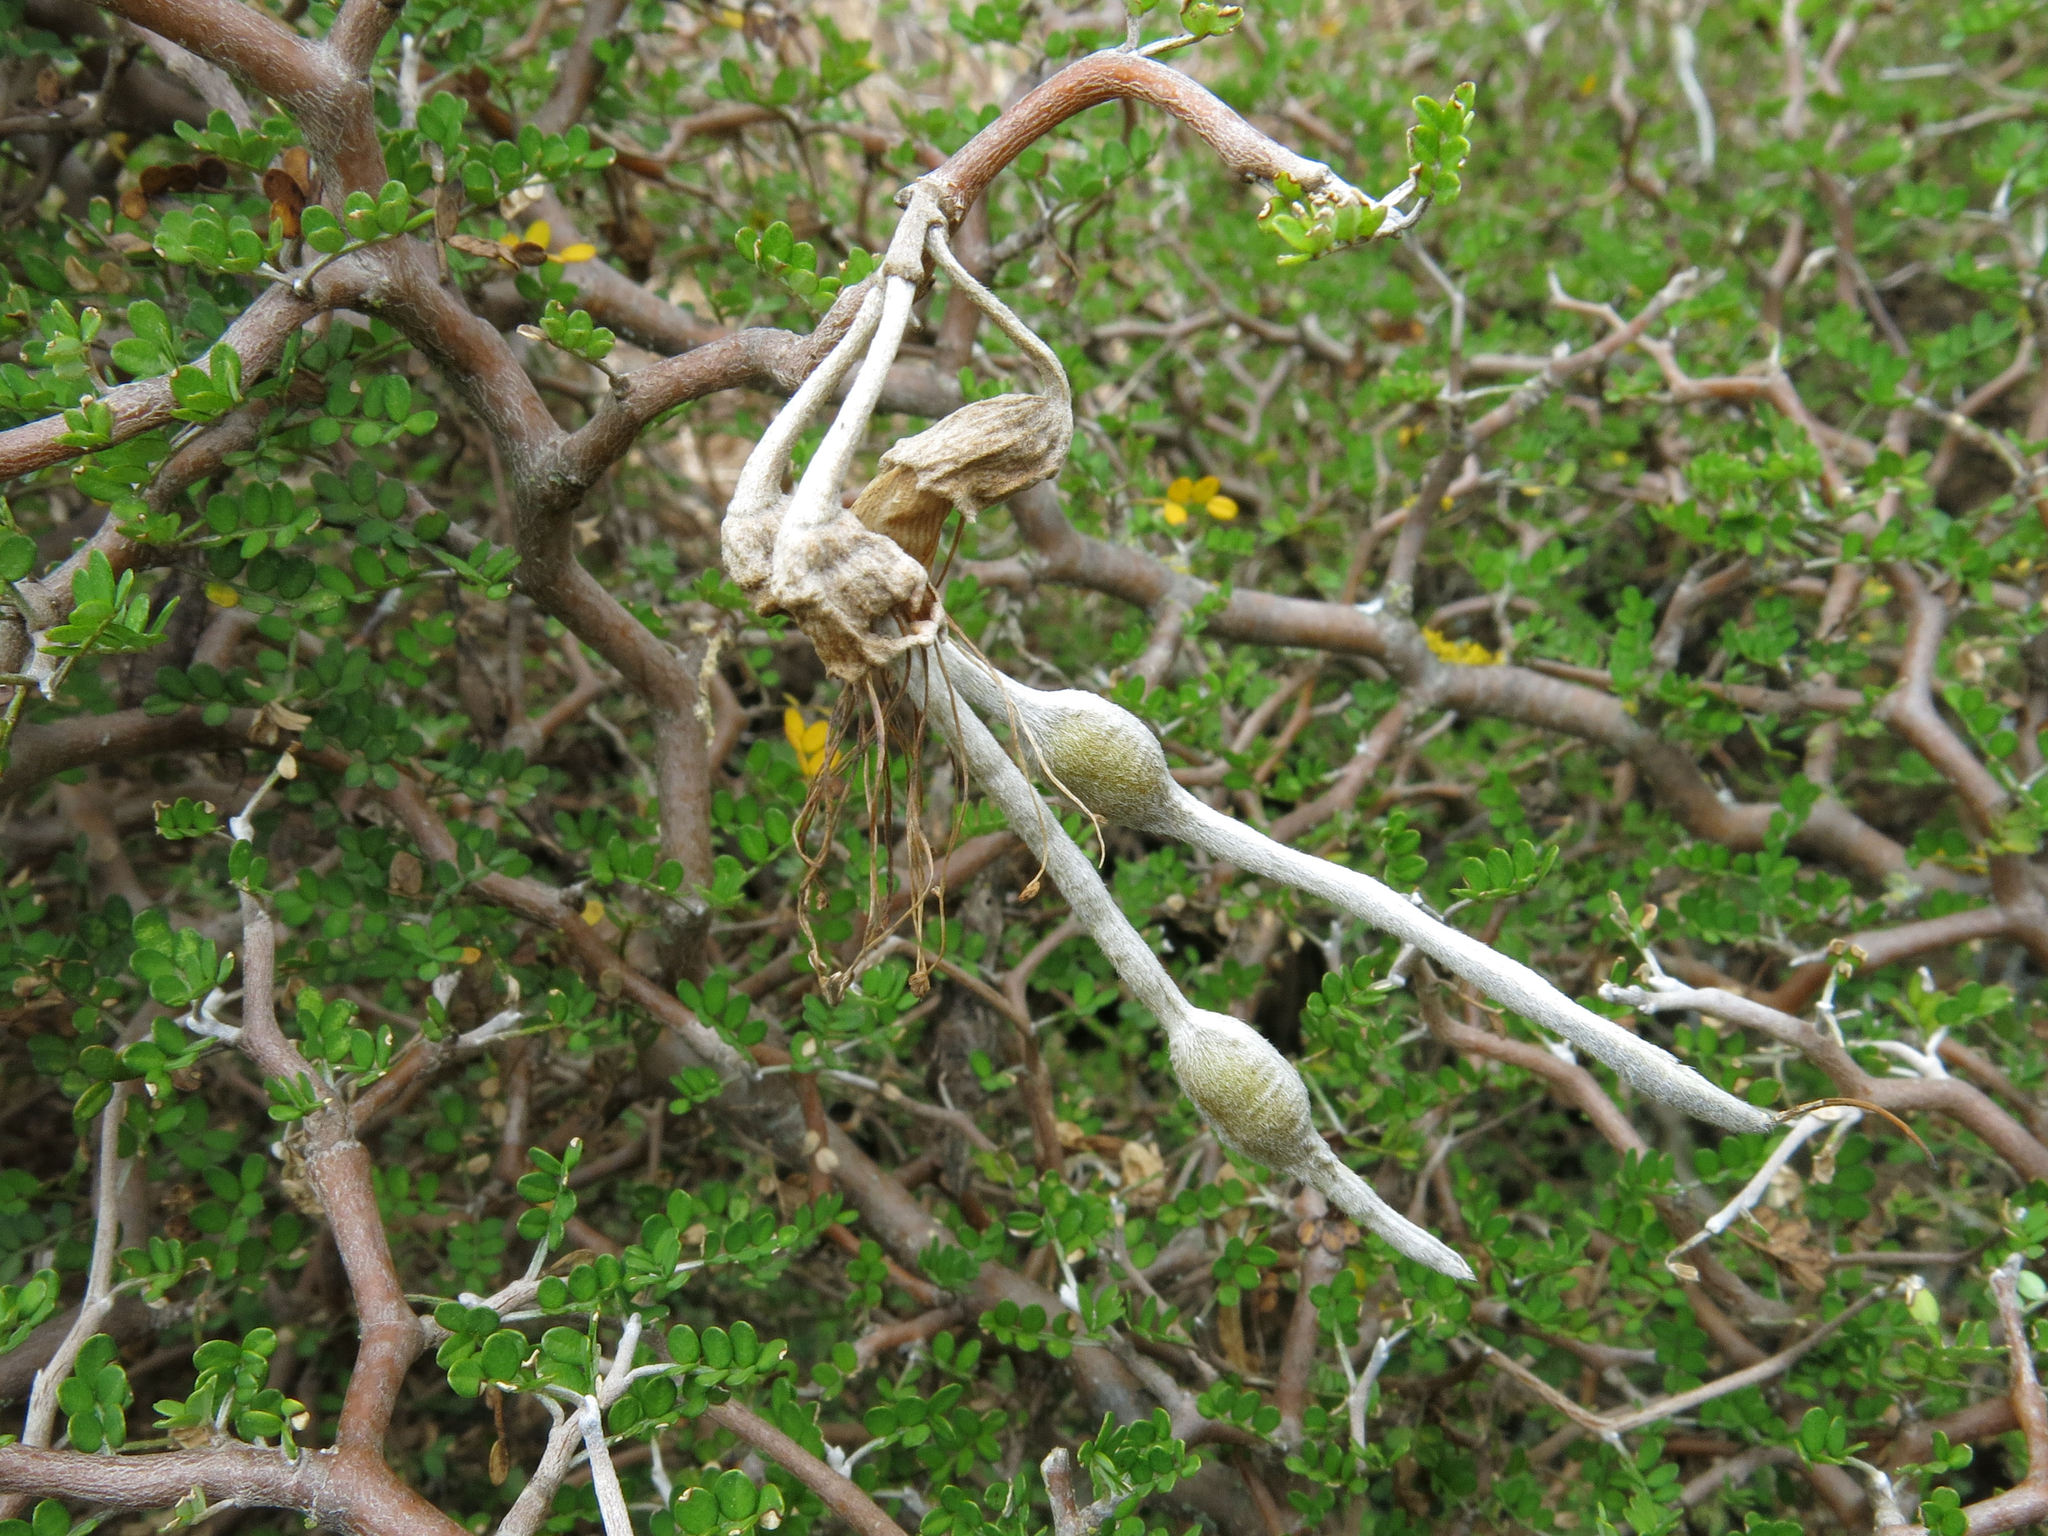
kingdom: Plantae
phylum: Tracheophyta
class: Magnoliopsida
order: Fabales
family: Fabaceae
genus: Sophora
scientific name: Sophora prostrata
